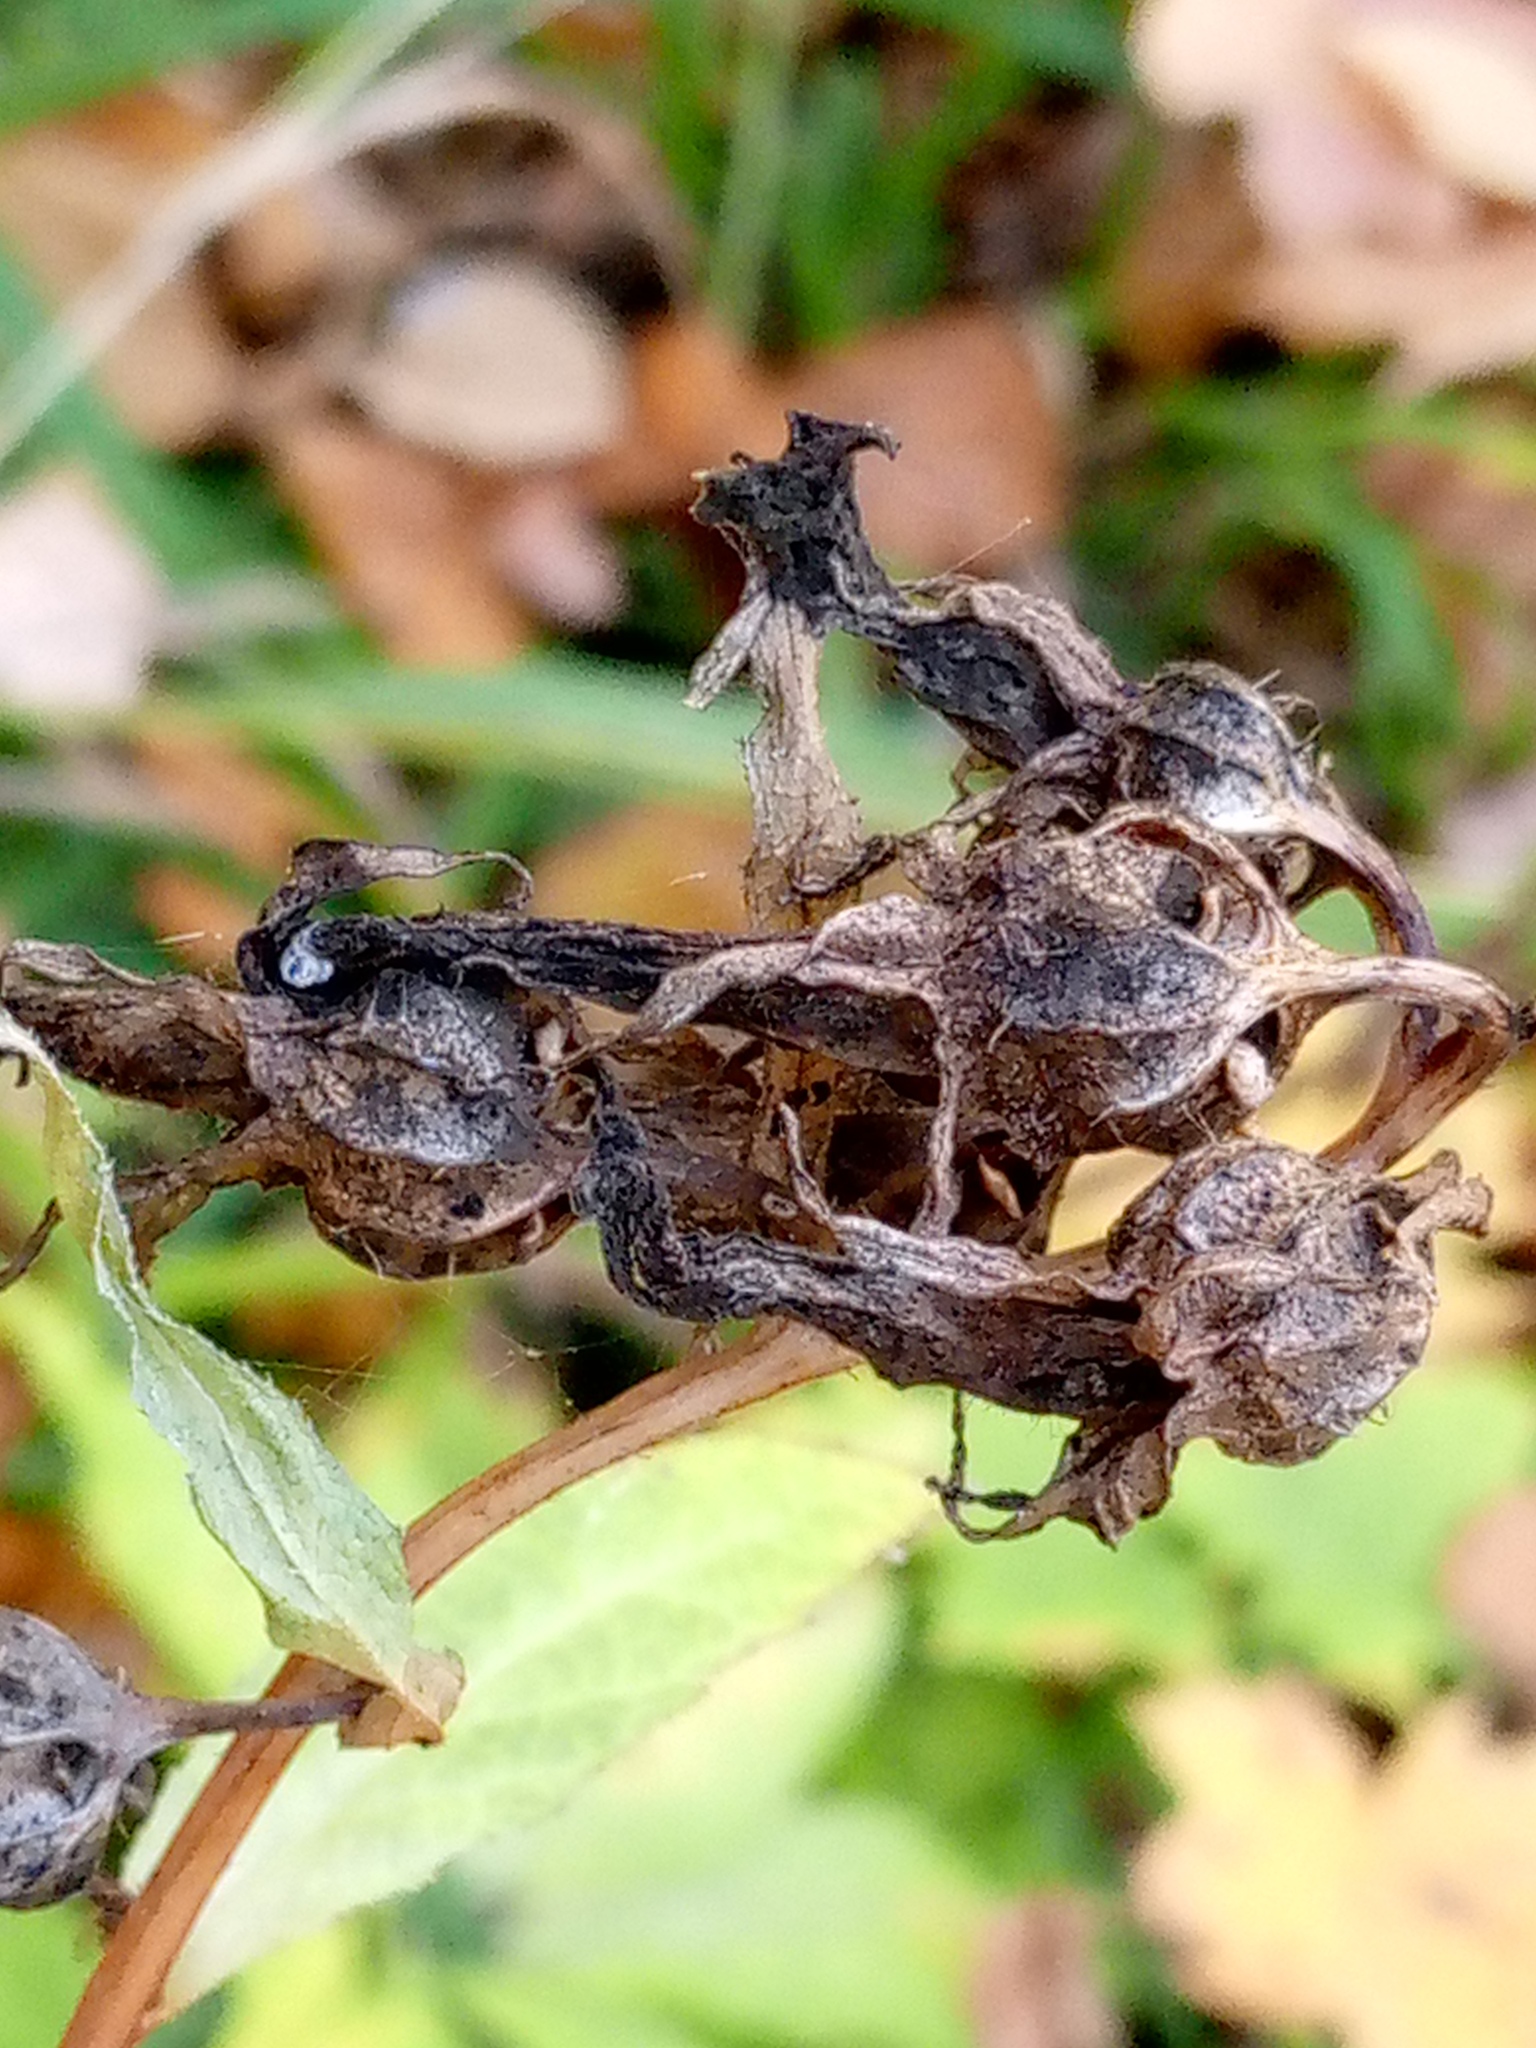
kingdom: Plantae
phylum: Tracheophyta
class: Magnoliopsida
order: Asterales
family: Campanulaceae
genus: Campanula
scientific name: Campanula trachelium
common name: Nettle-leaved bellflower
